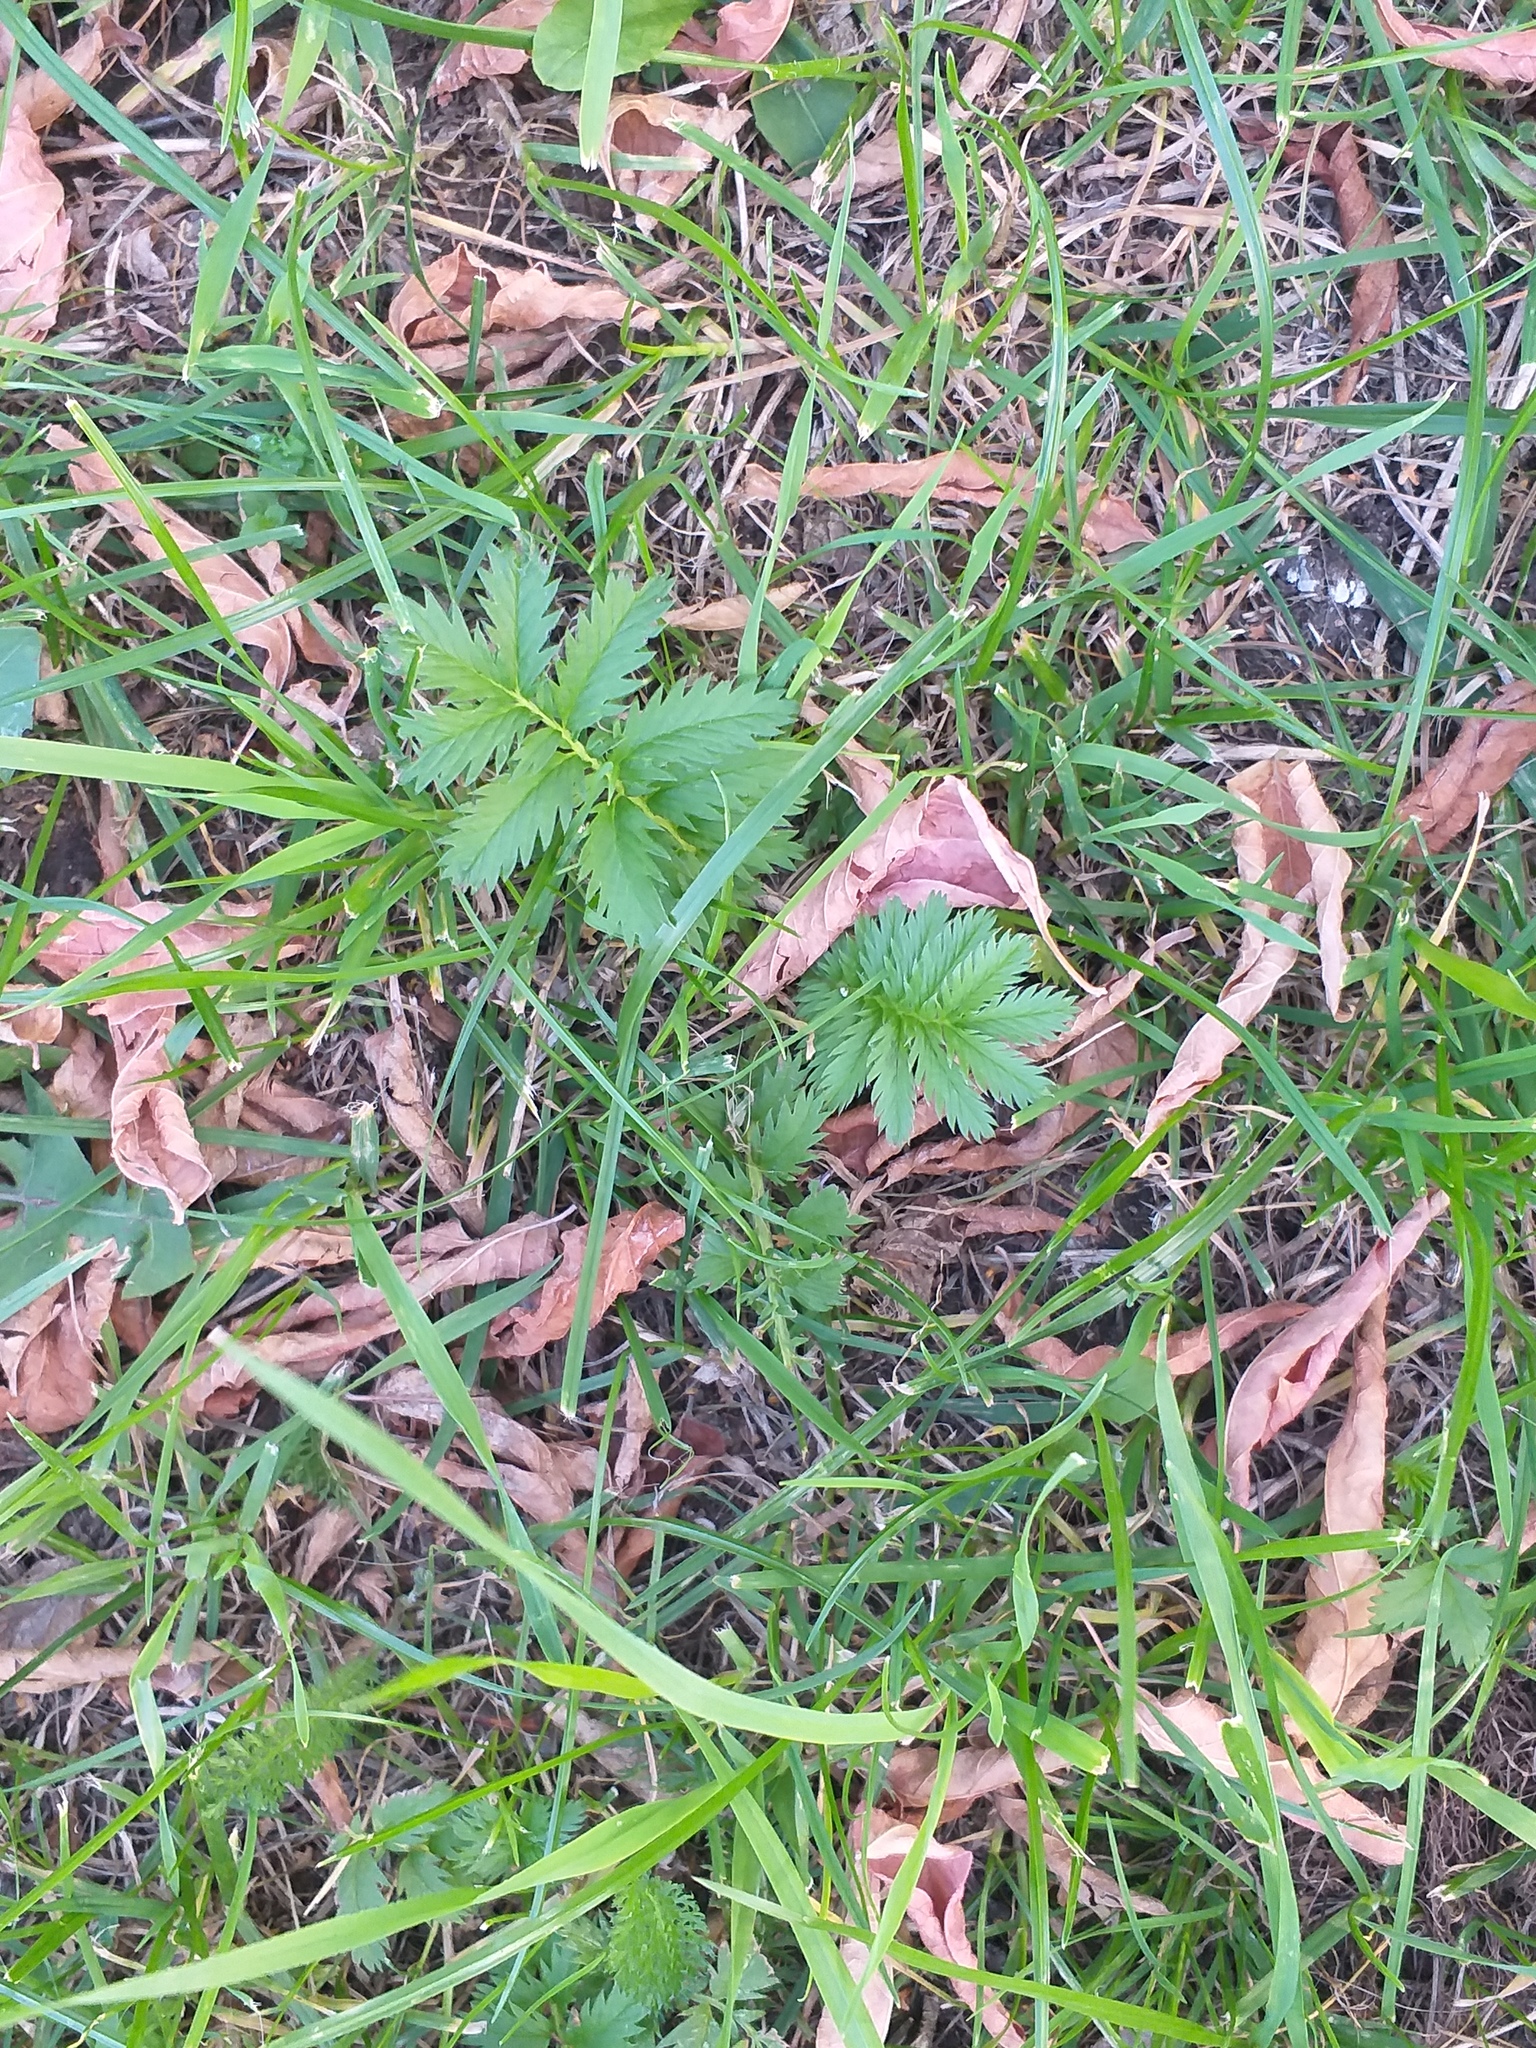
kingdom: Plantae
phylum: Tracheophyta
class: Magnoliopsida
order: Rosales
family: Rosaceae
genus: Argentina
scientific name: Argentina anserina
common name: Common silverweed
